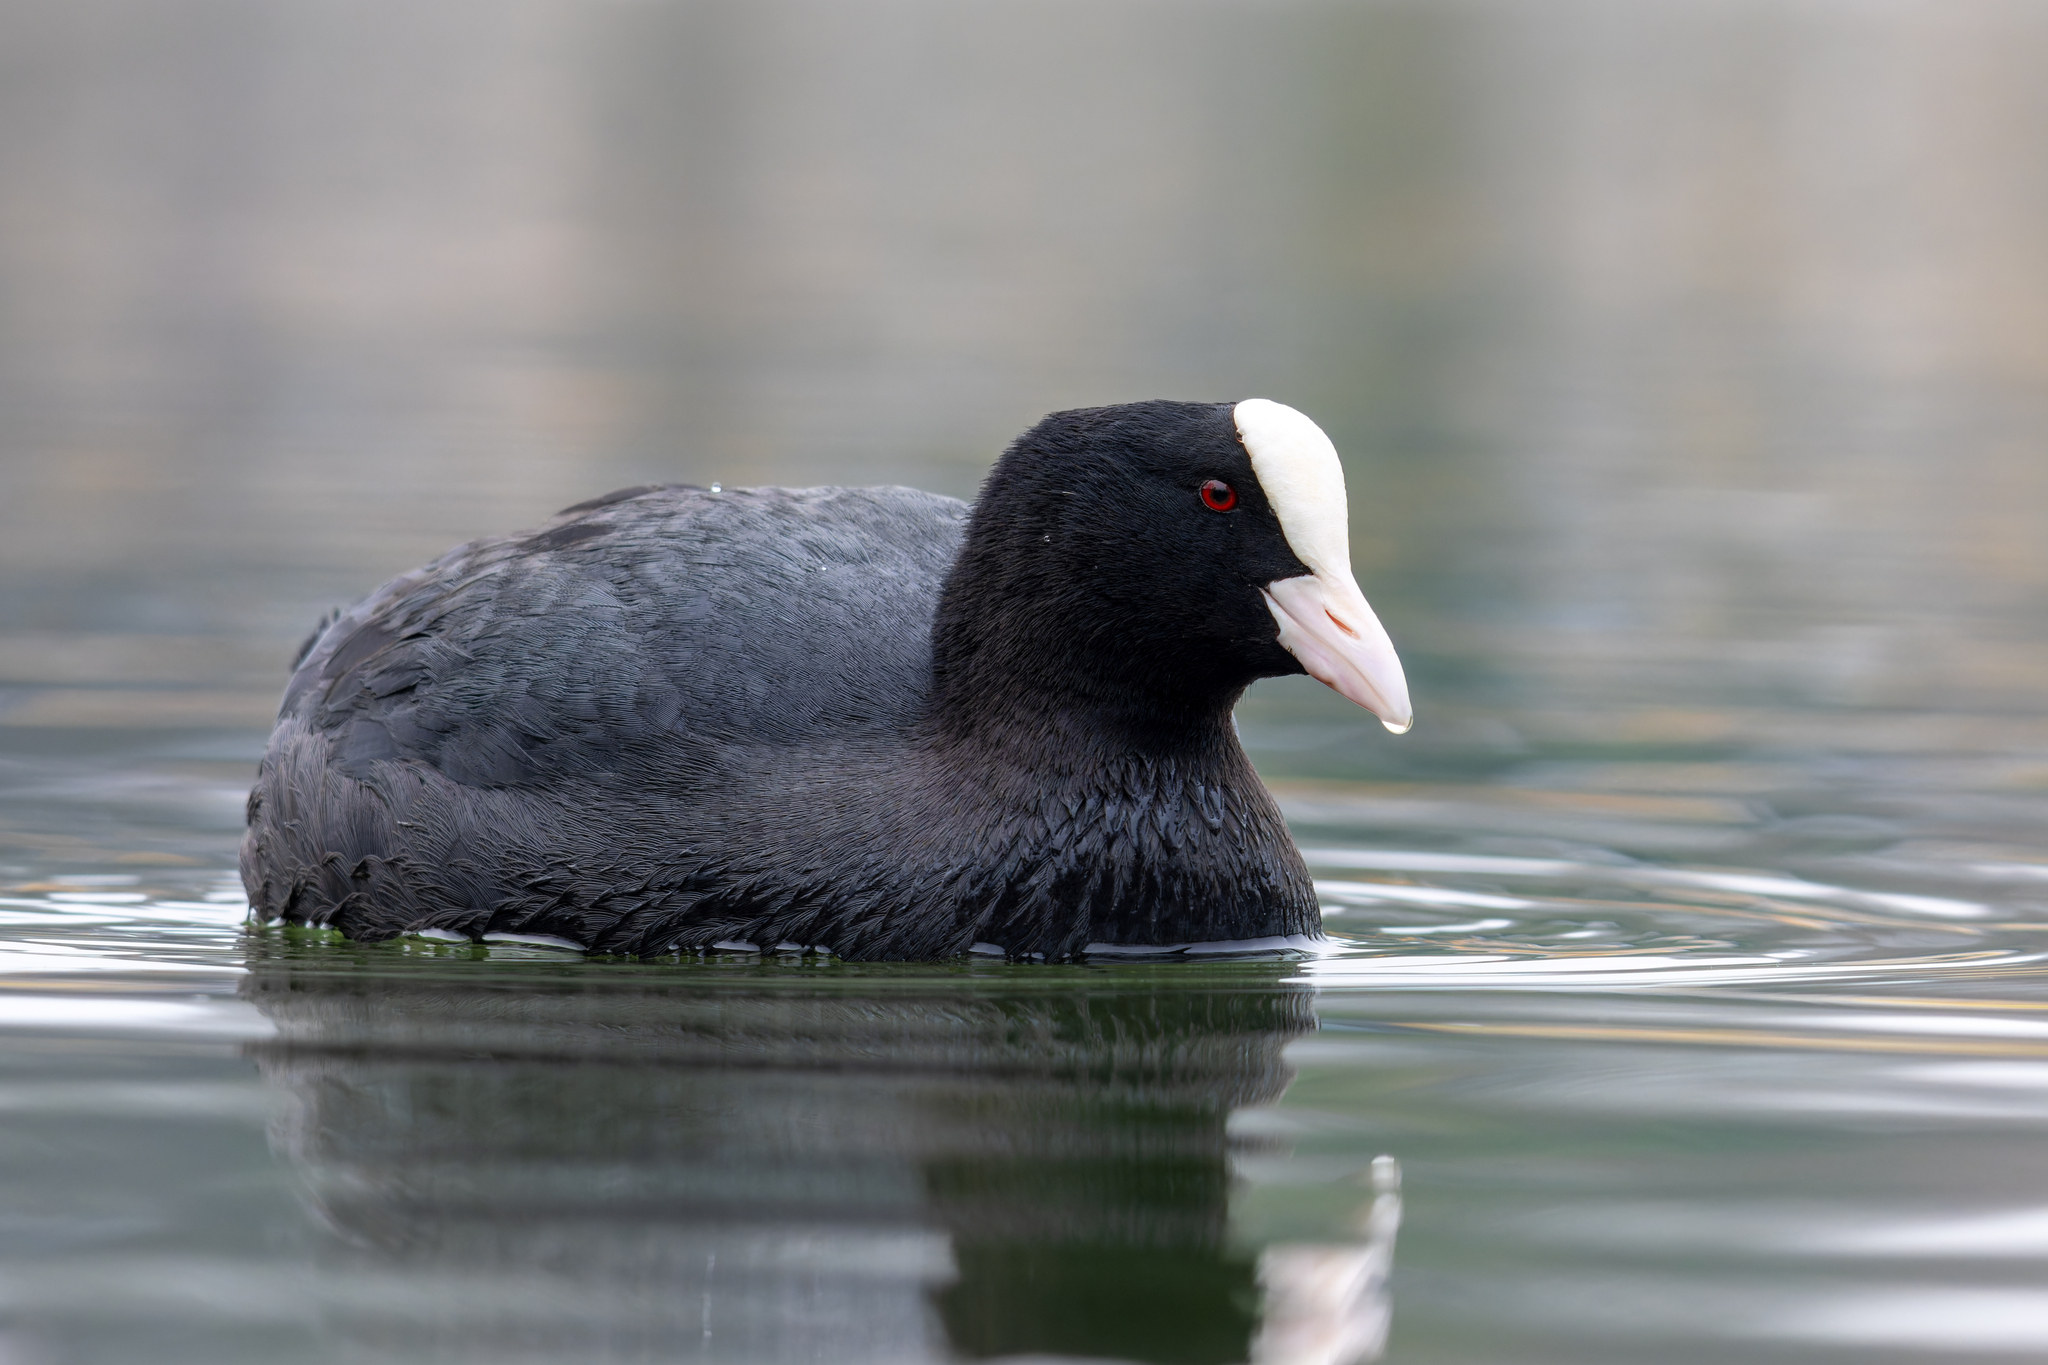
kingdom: Animalia
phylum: Chordata
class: Aves
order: Gruiformes
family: Rallidae
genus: Fulica
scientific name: Fulica atra
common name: Eurasian coot
